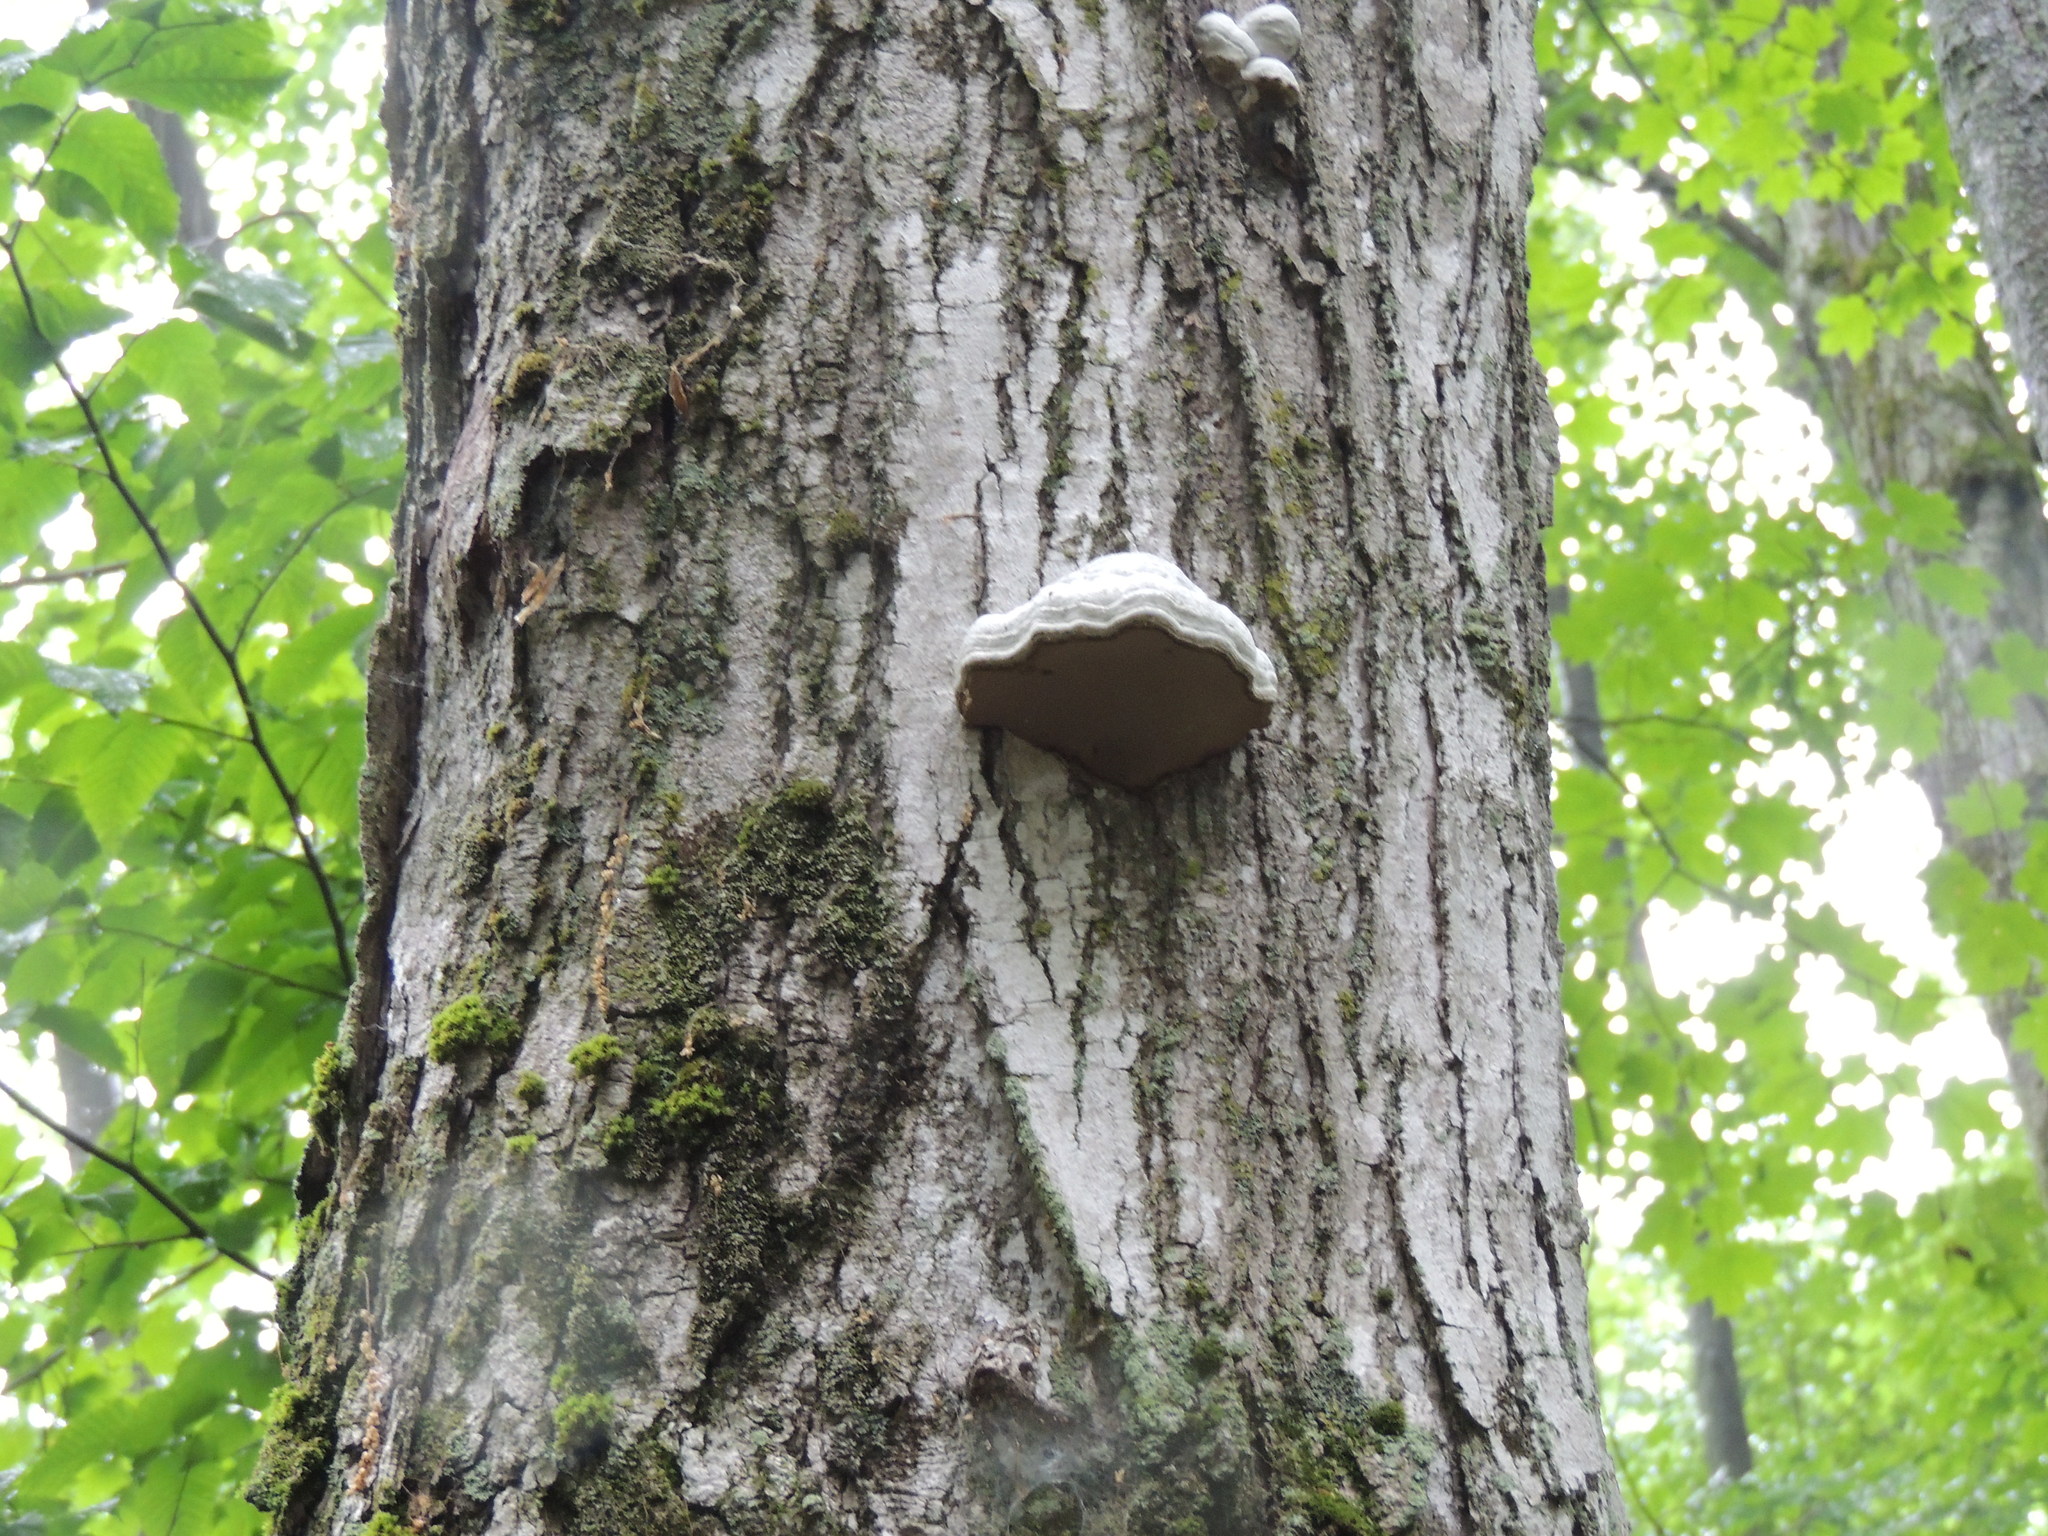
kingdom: Fungi
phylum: Basidiomycota
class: Agaricomycetes
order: Polyporales
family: Polyporaceae
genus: Fomes
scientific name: Fomes fomentarius
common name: Hoof fungus
